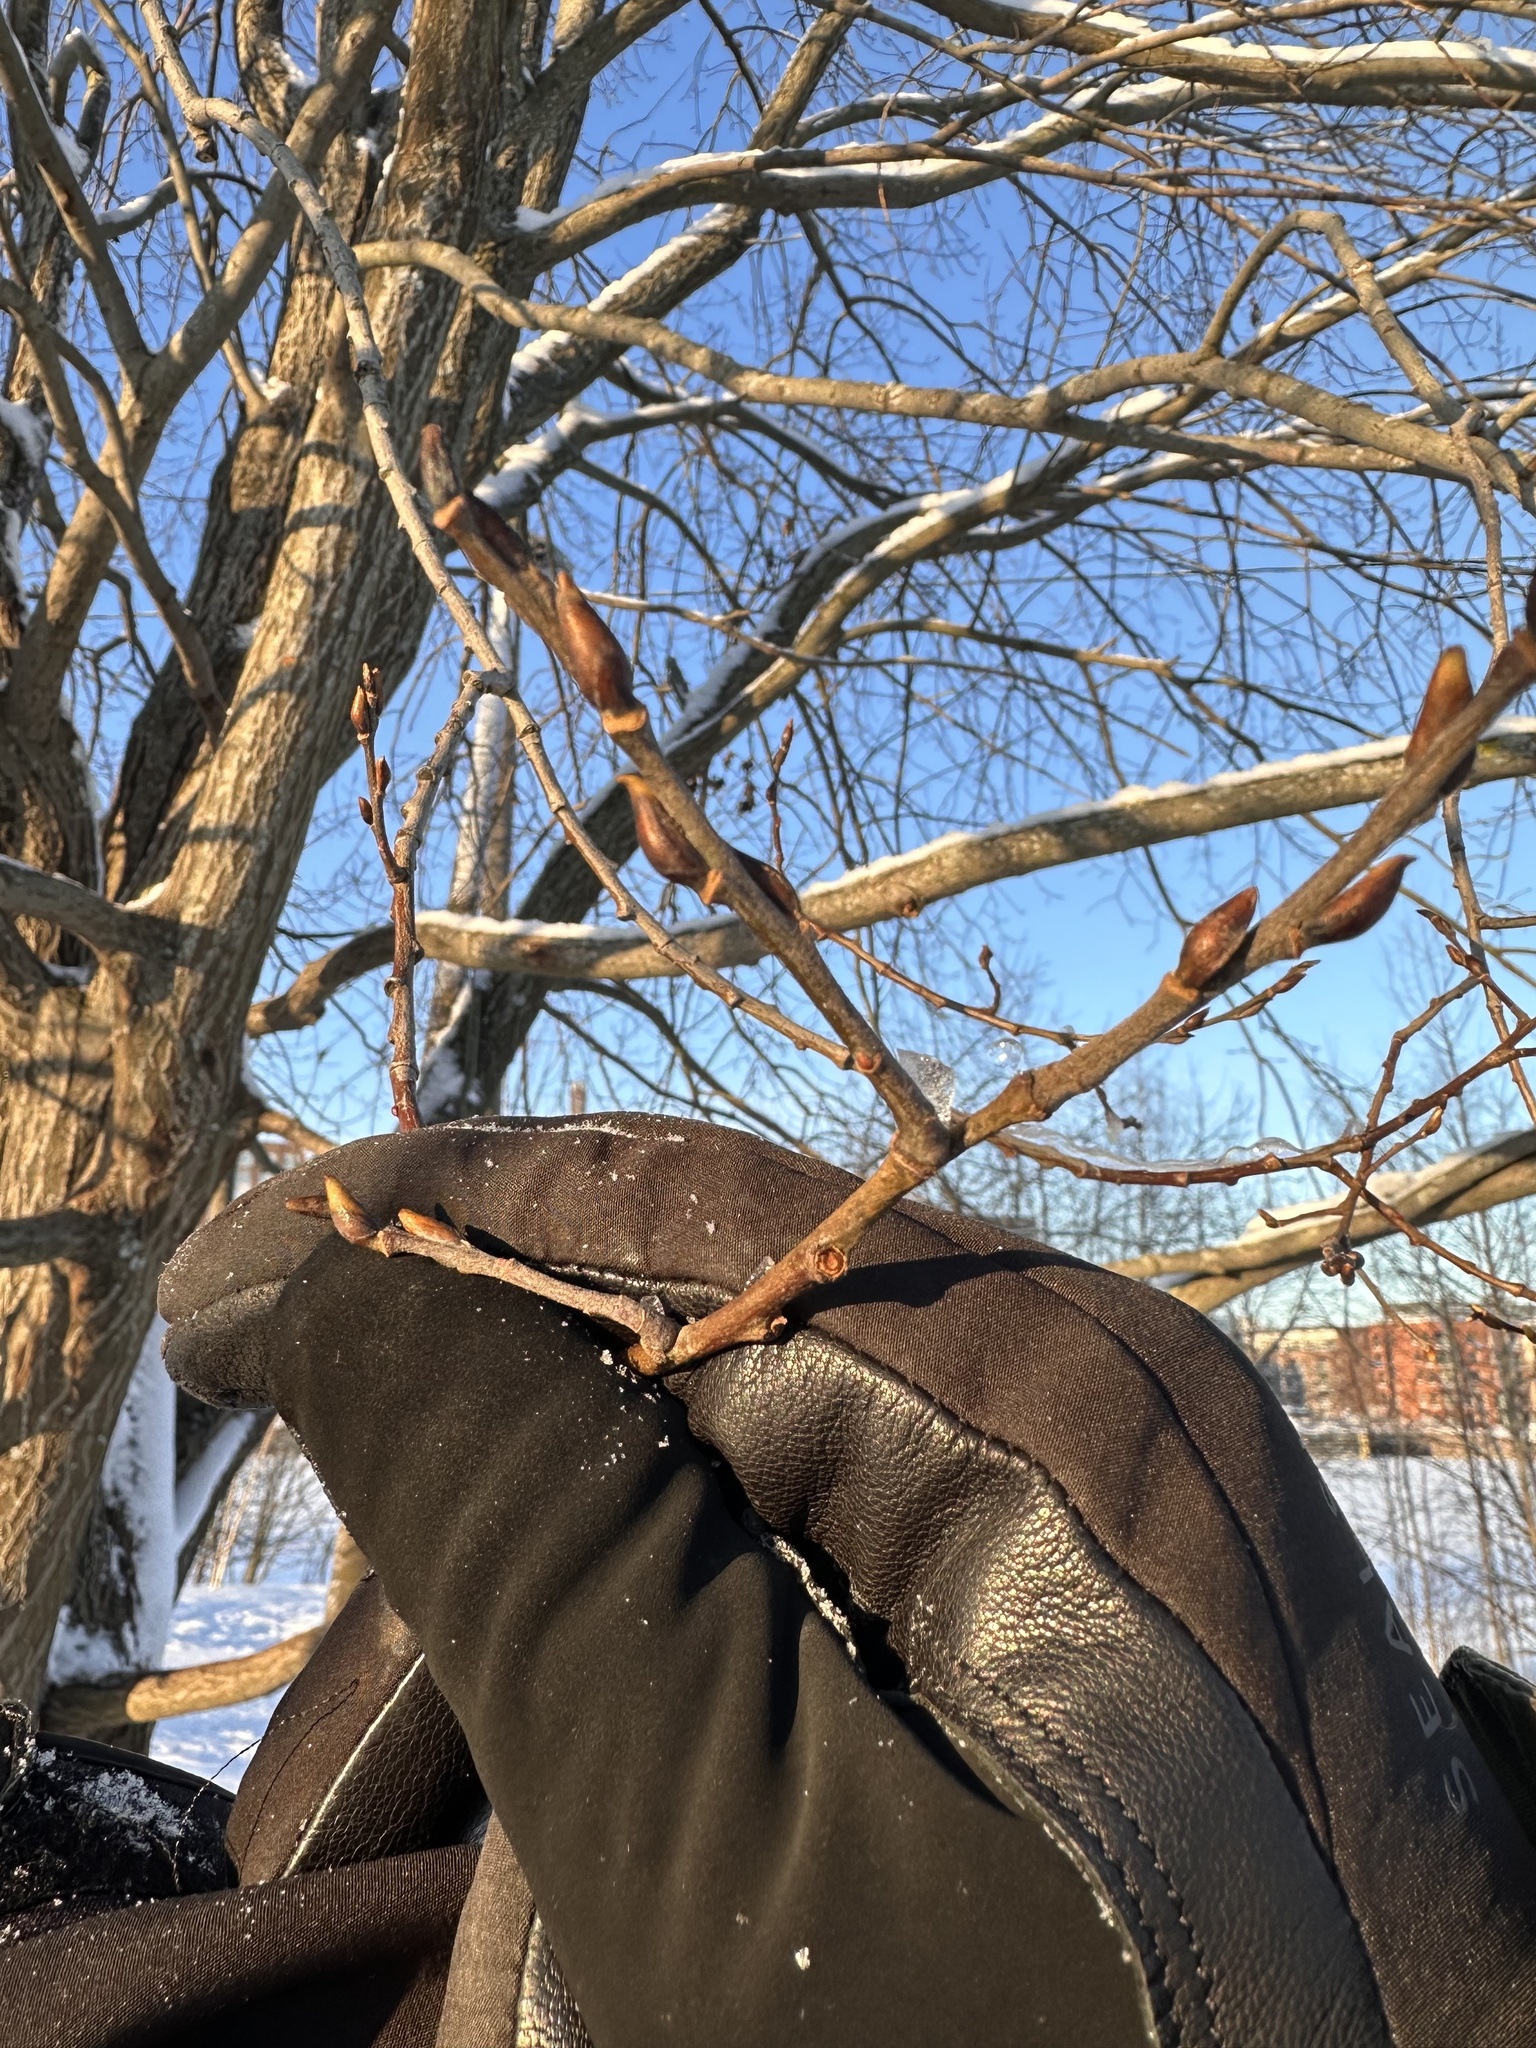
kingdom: Plantae
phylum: Tracheophyta
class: Magnoliopsida
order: Malpighiales
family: Salicaceae
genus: Salix
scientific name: Salix caprea
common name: Goat willow
